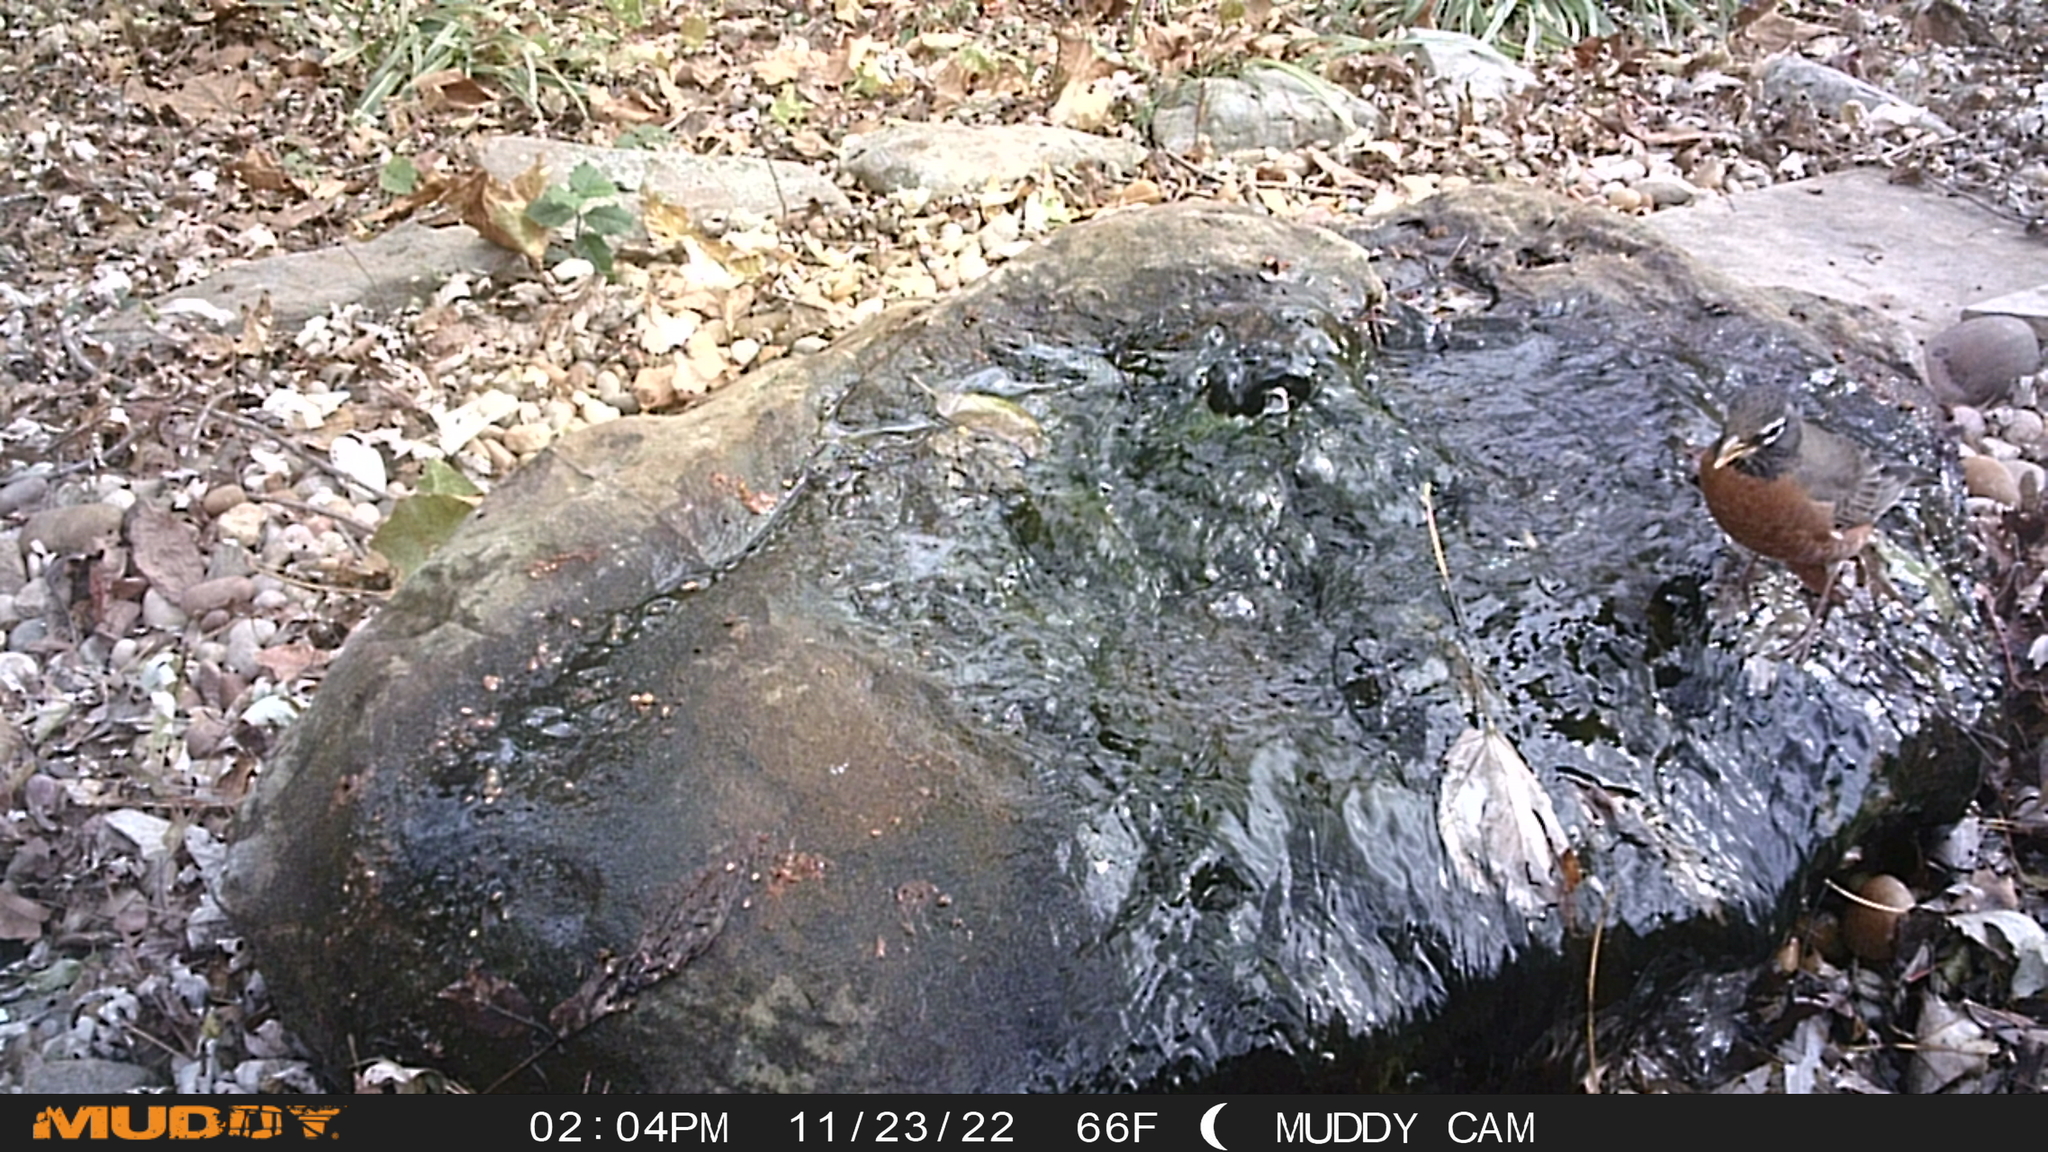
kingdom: Animalia
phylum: Chordata
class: Aves
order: Passeriformes
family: Turdidae
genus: Turdus
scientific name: Turdus migratorius
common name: American robin
